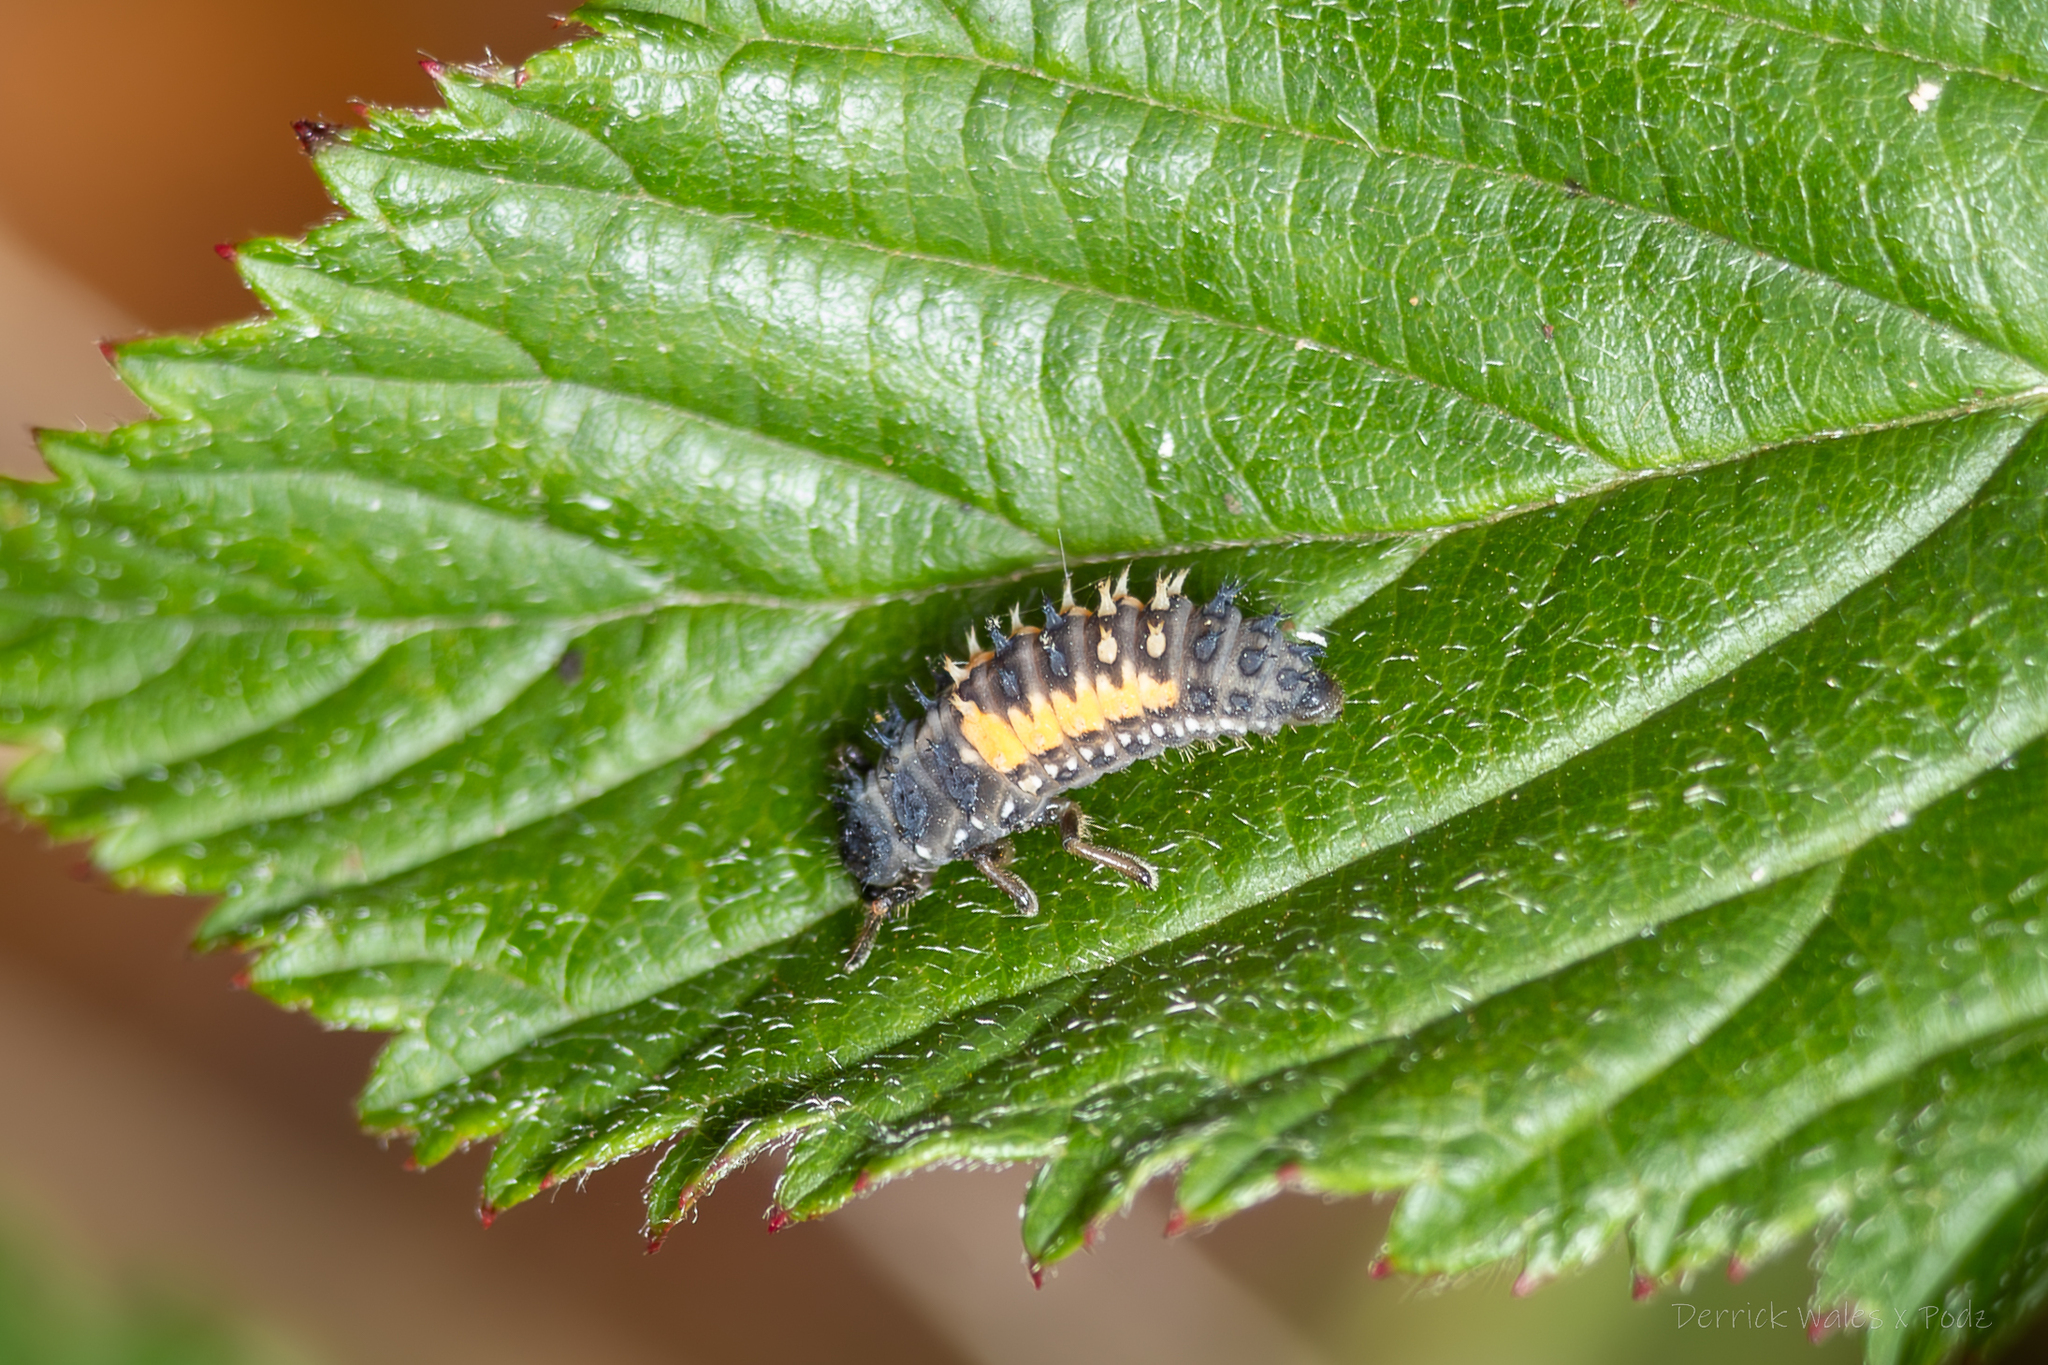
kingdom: Animalia
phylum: Arthropoda
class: Insecta
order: Coleoptera
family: Coccinellidae
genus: Harmonia
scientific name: Harmonia axyridis
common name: Harlequin ladybird
